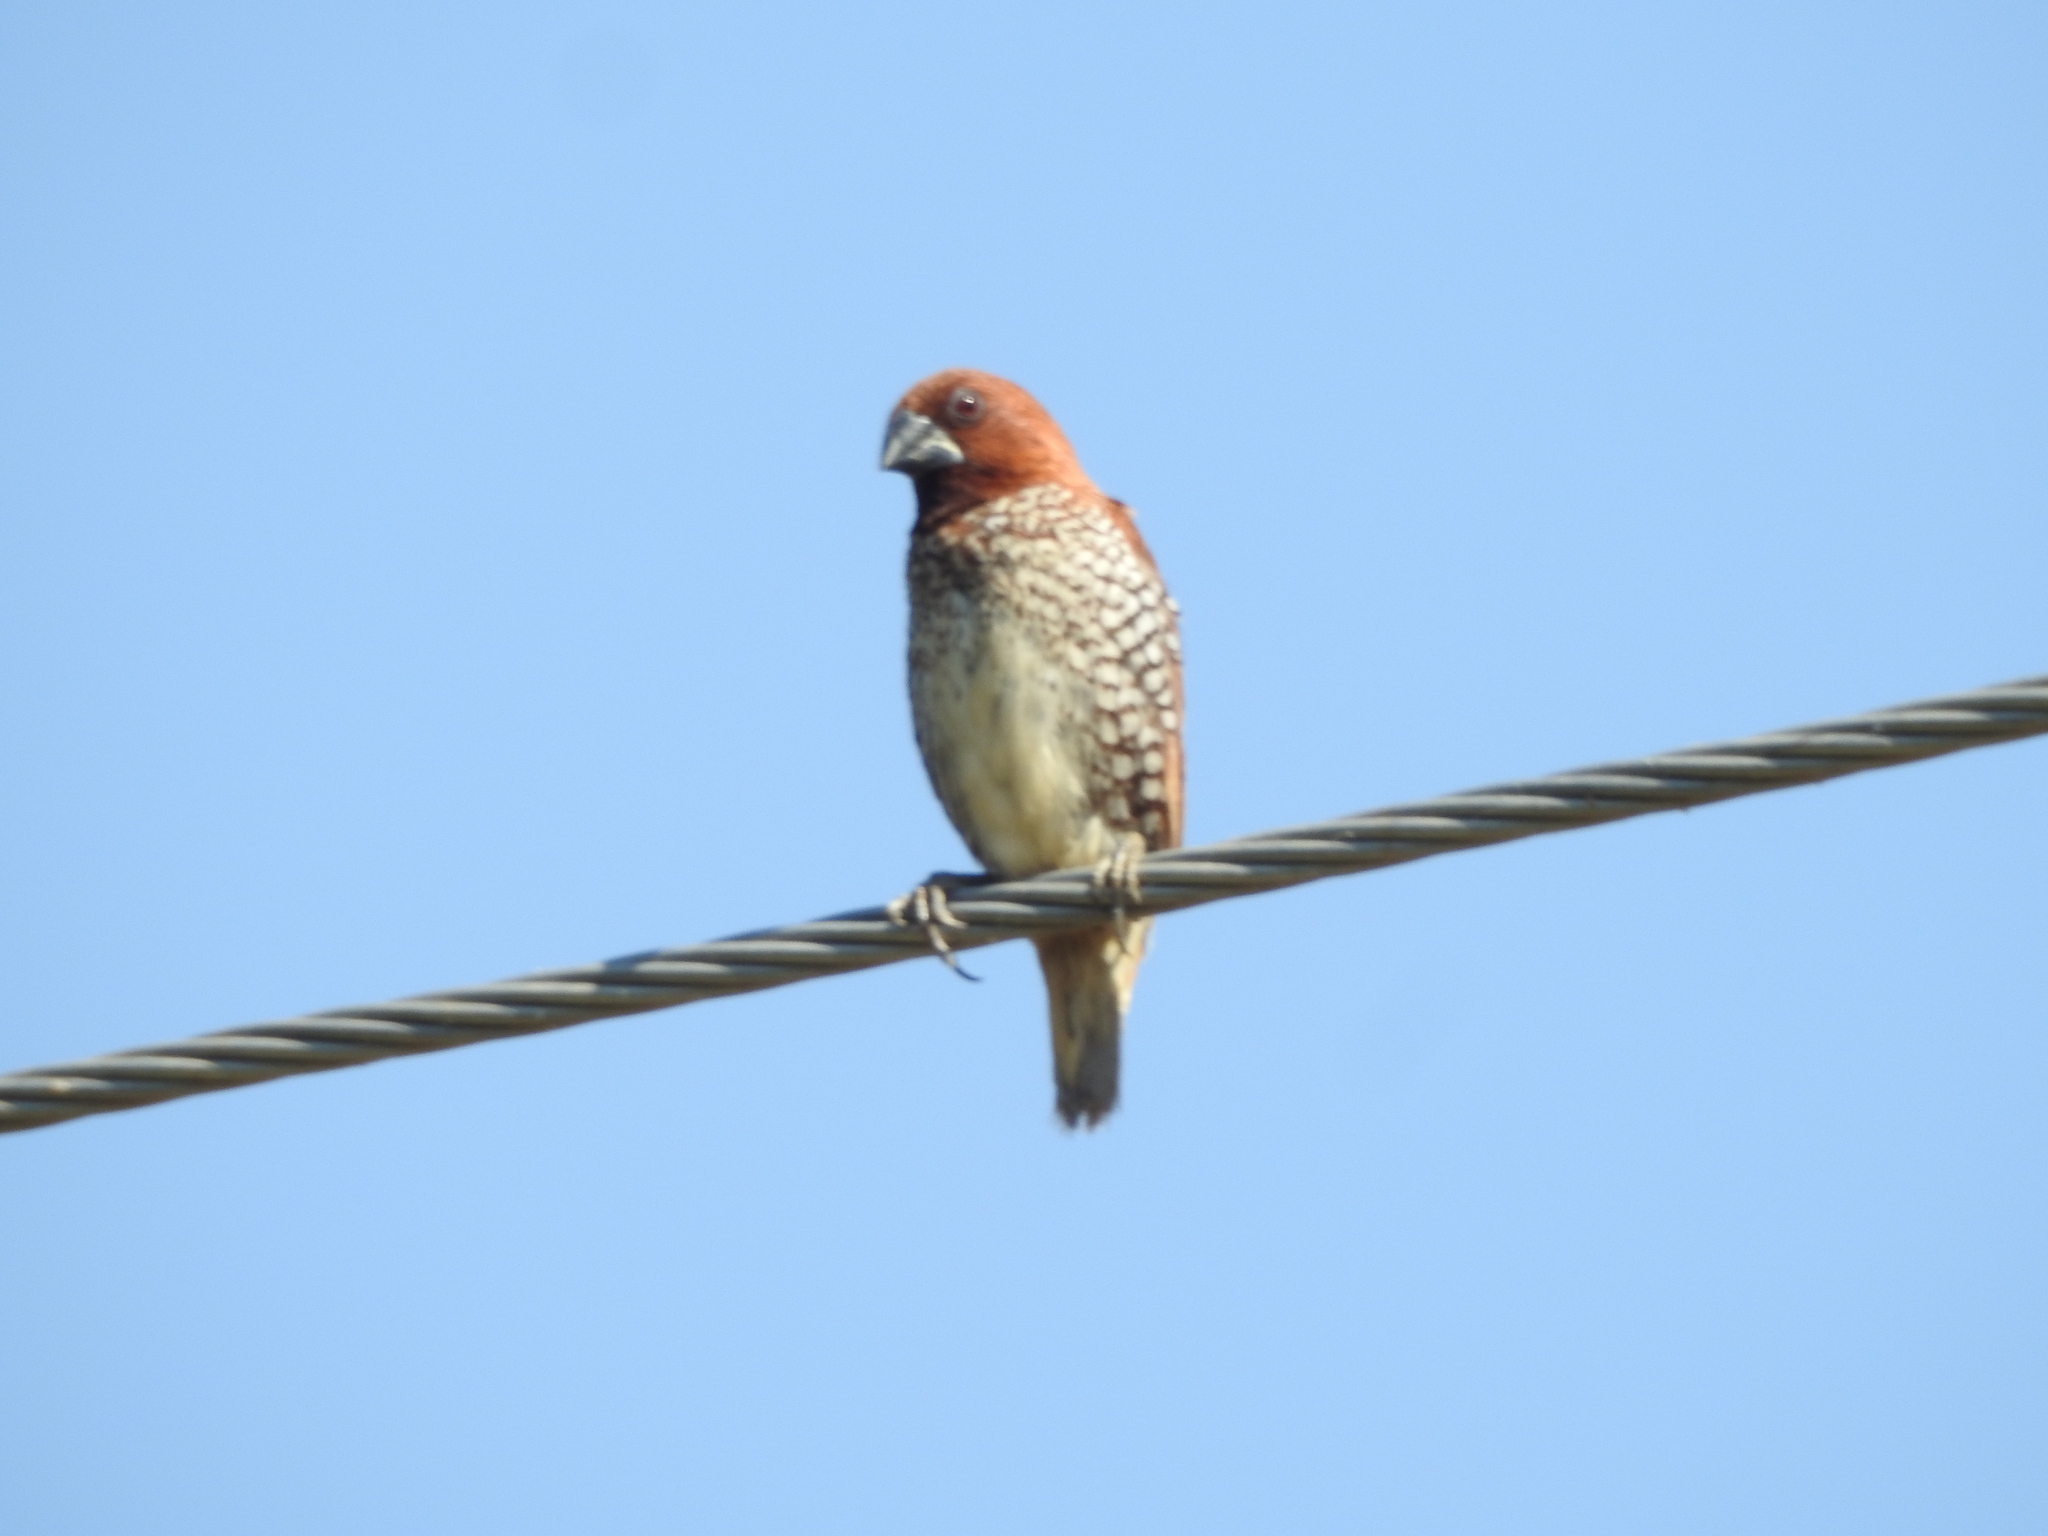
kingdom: Animalia
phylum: Chordata
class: Aves
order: Passeriformes
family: Estrildidae
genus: Lonchura
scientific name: Lonchura punctulata
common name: Scaly-breasted munia
